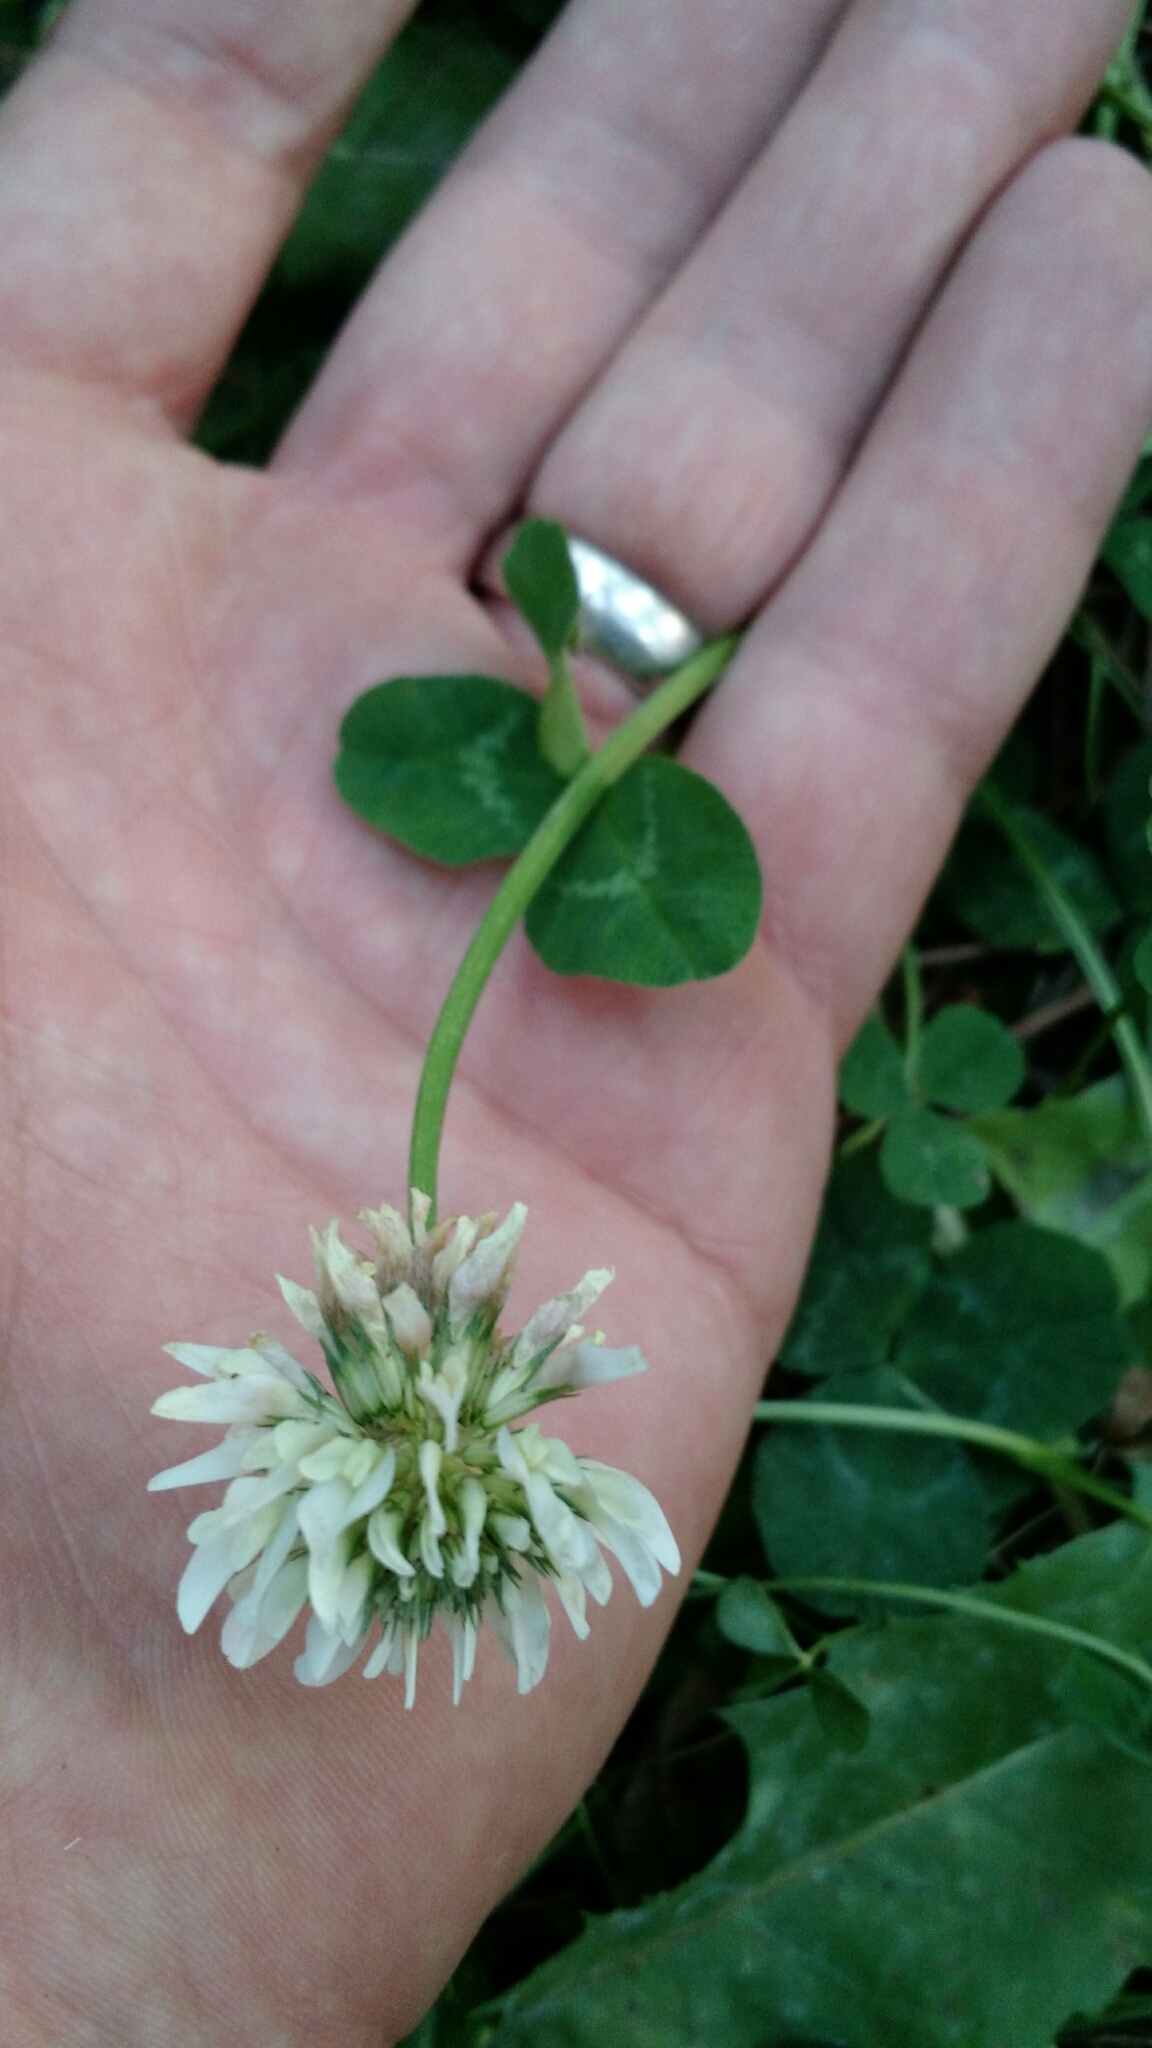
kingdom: Plantae
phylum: Tracheophyta
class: Magnoliopsida
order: Fabales
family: Fabaceae
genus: Trifolium
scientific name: Trifolium repens
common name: White clover
